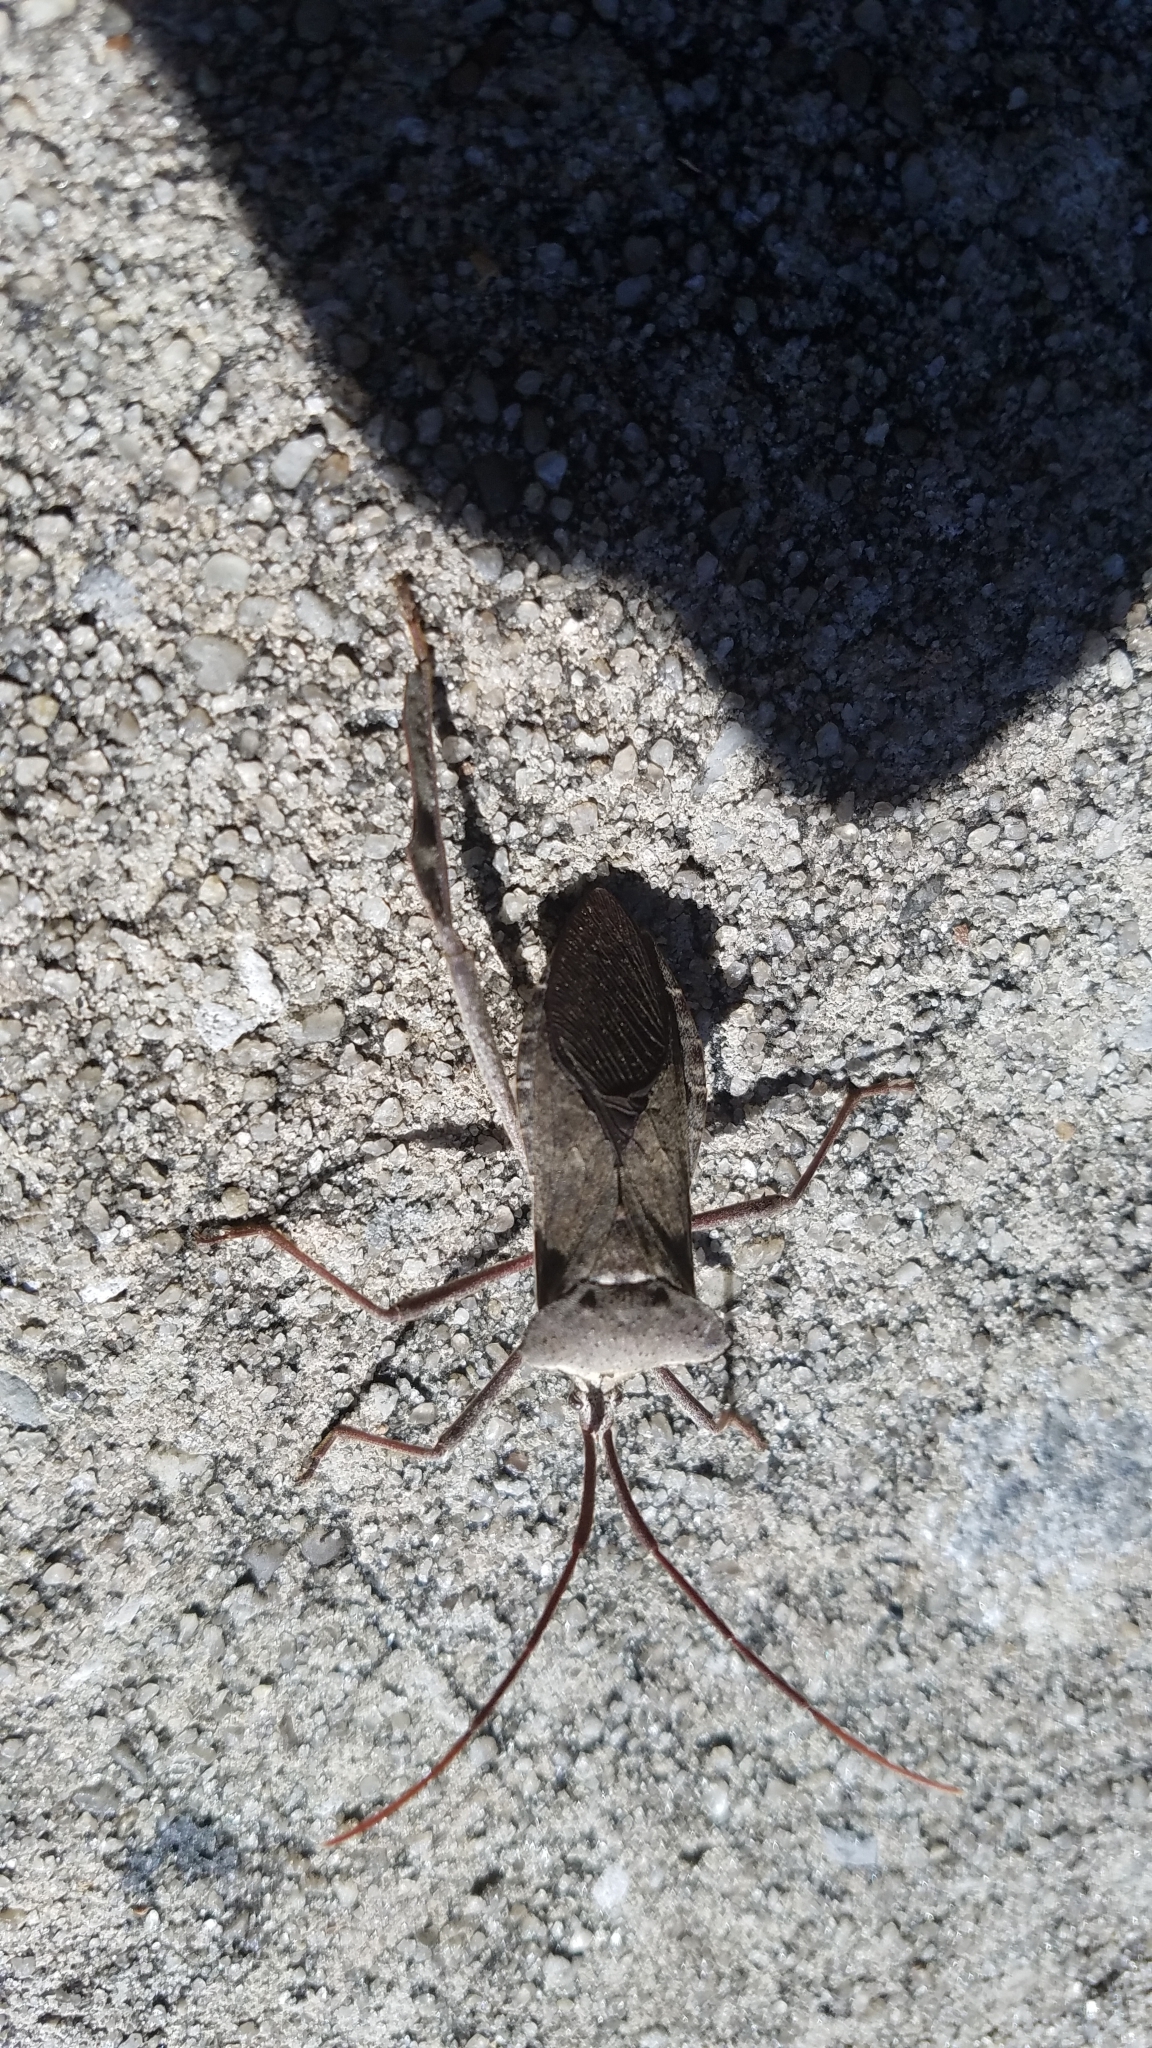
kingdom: Animalia
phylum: Arthropoda
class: Insecta
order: Hemiptera
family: Coreidae
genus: Acanthocephala
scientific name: Acanthocephala declivis
